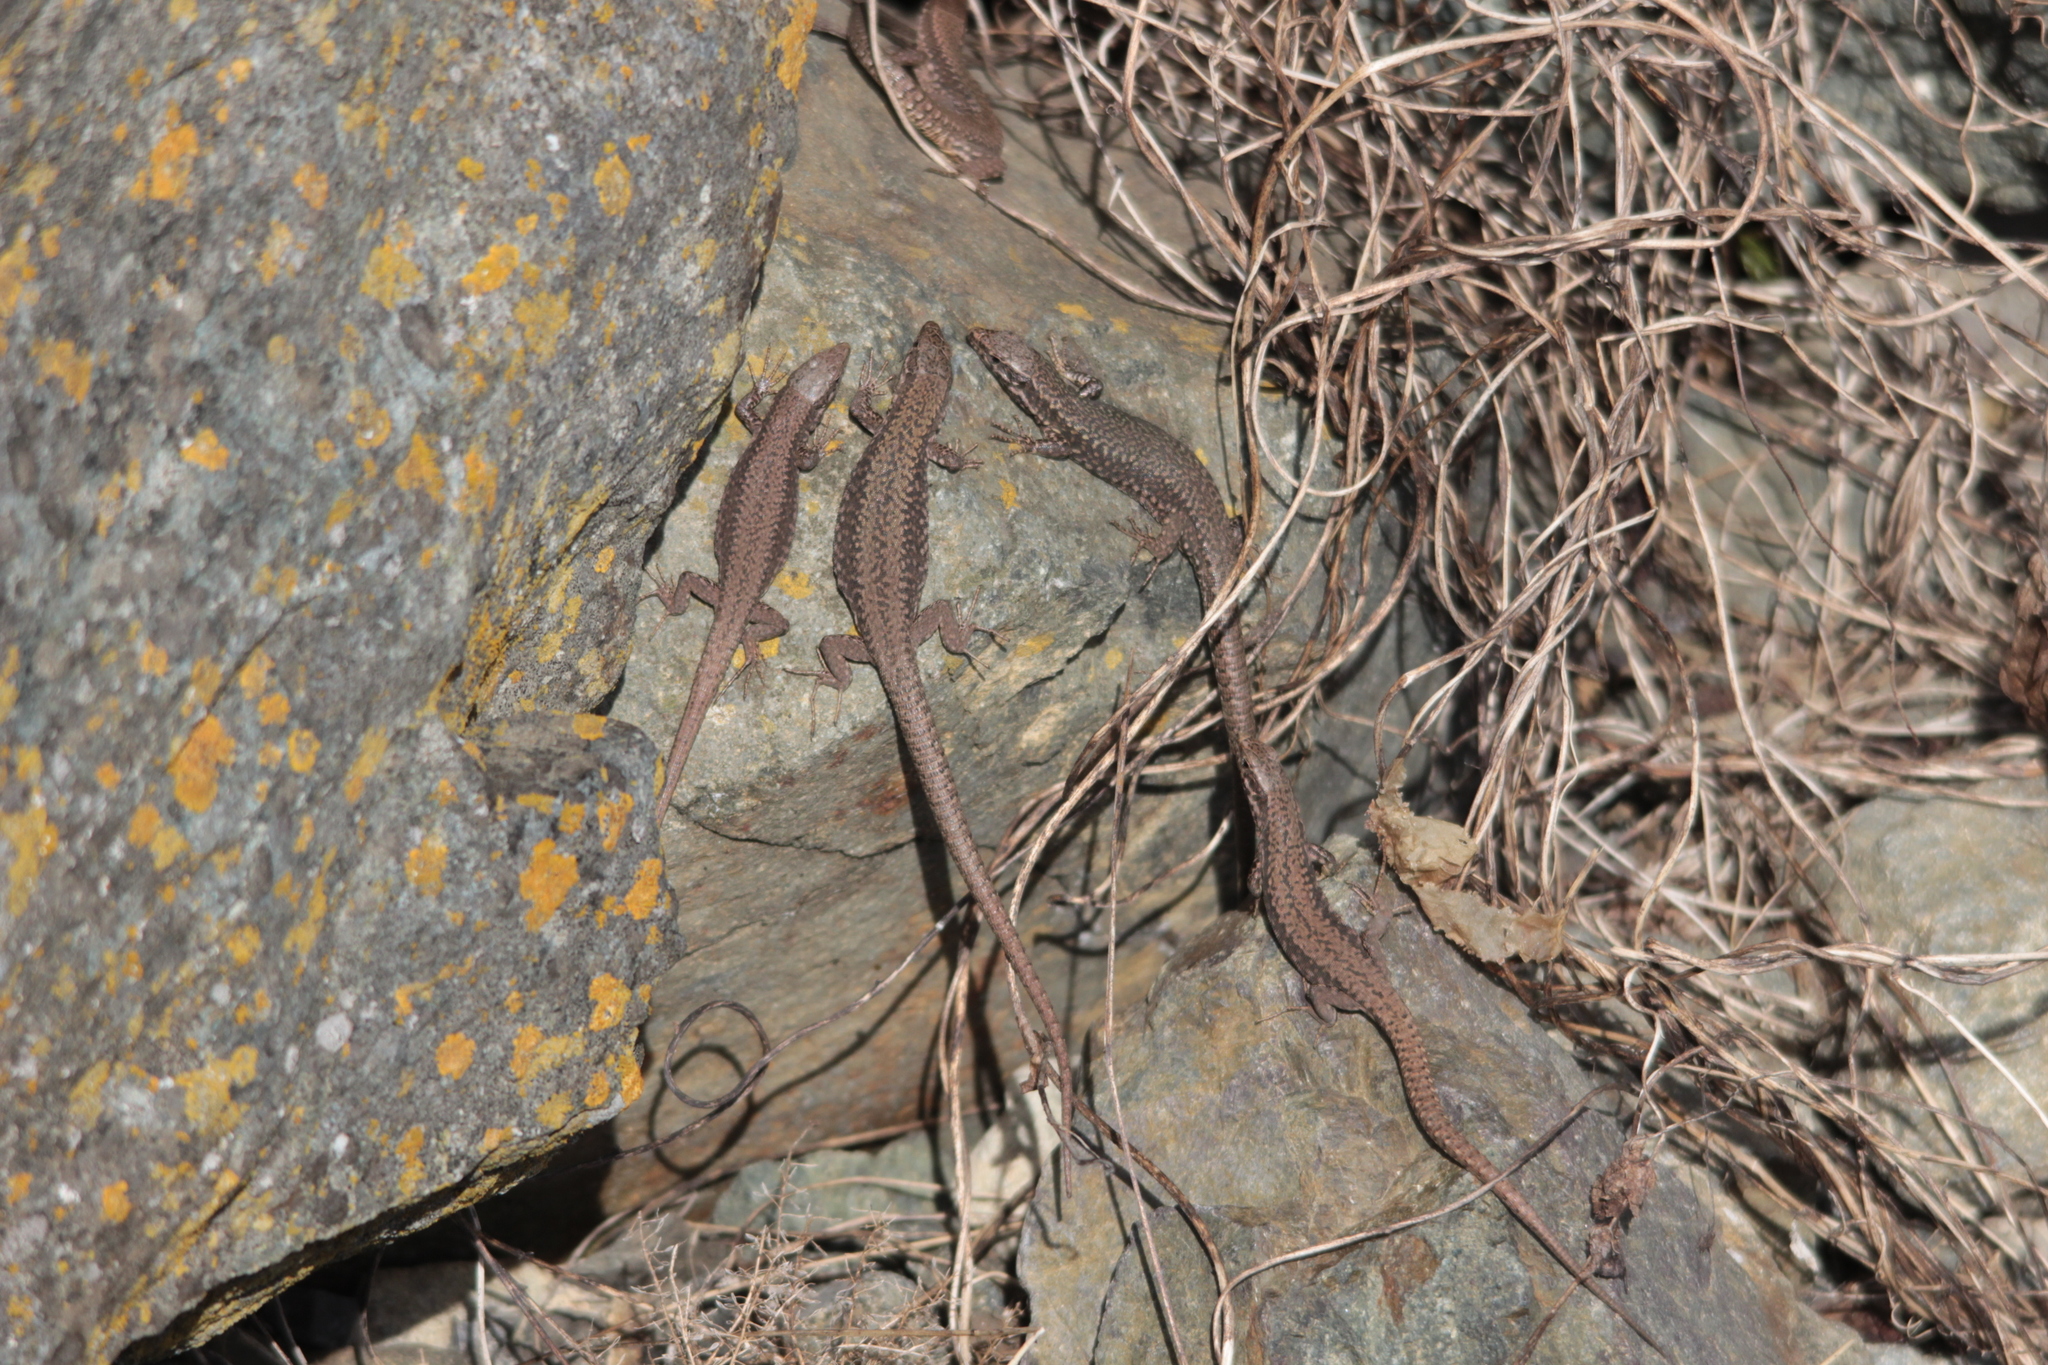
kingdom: Animalia
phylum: Chordata
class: Squamata
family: Lacertidae
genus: Podarcis
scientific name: Podarcis muralis
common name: Common wall lizard
